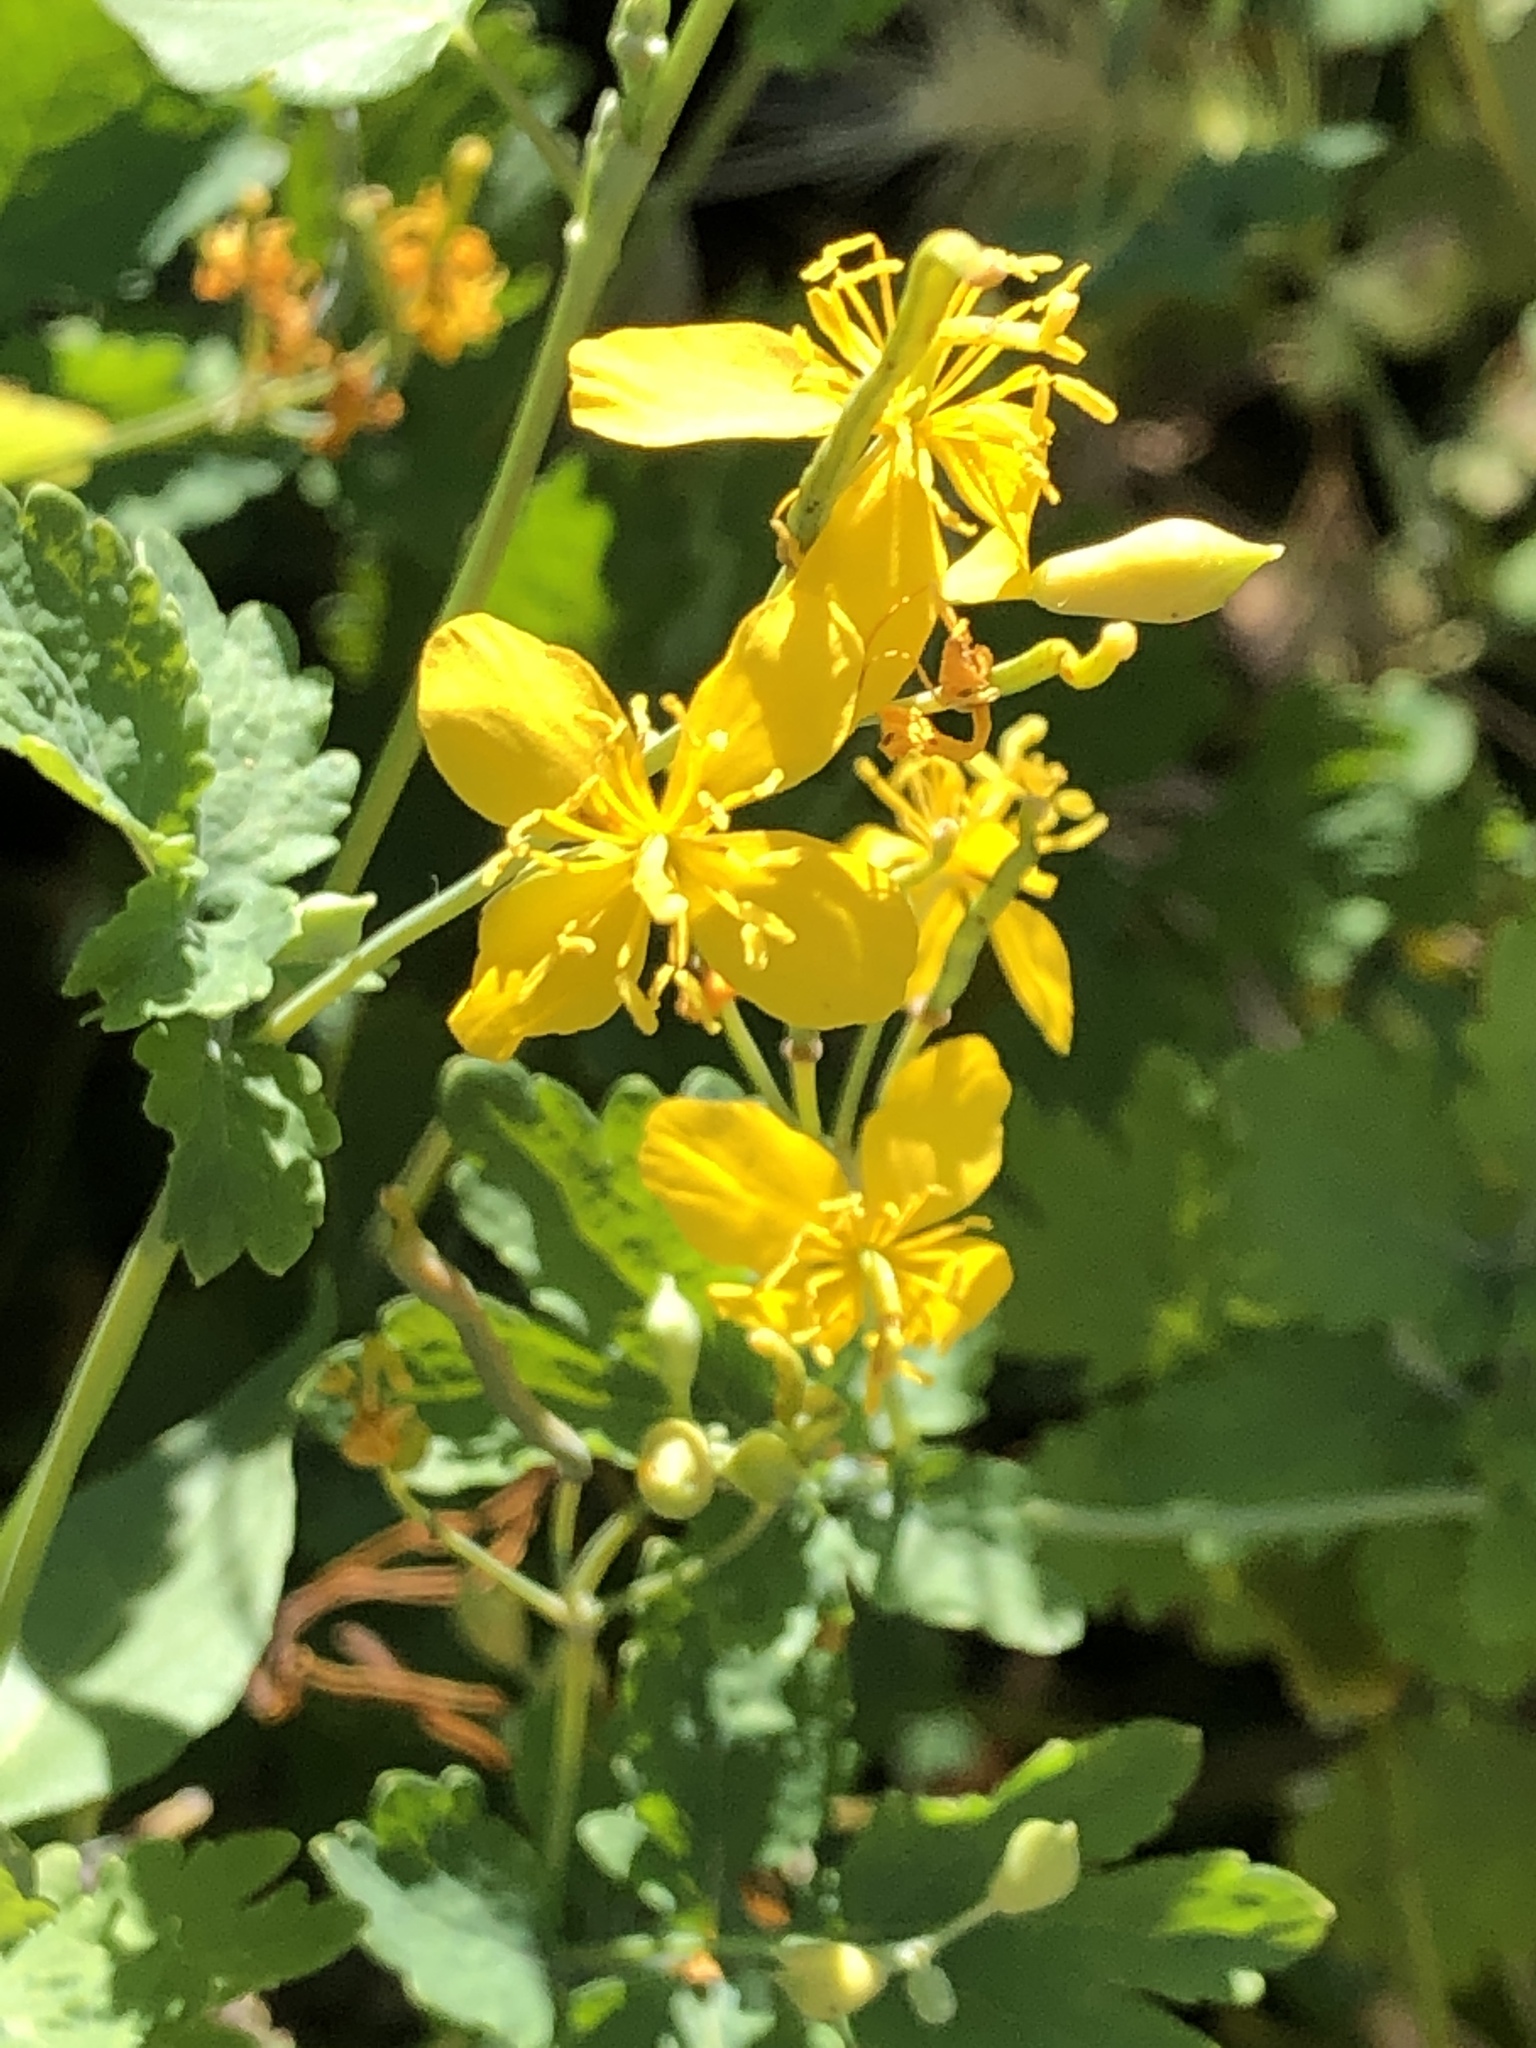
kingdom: Plantae
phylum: Tracheophyta
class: Magnoliopsida
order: Ranunculales
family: Papaveraceae
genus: Chelidonium
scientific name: Chelidonium majus
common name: Greater celandine
